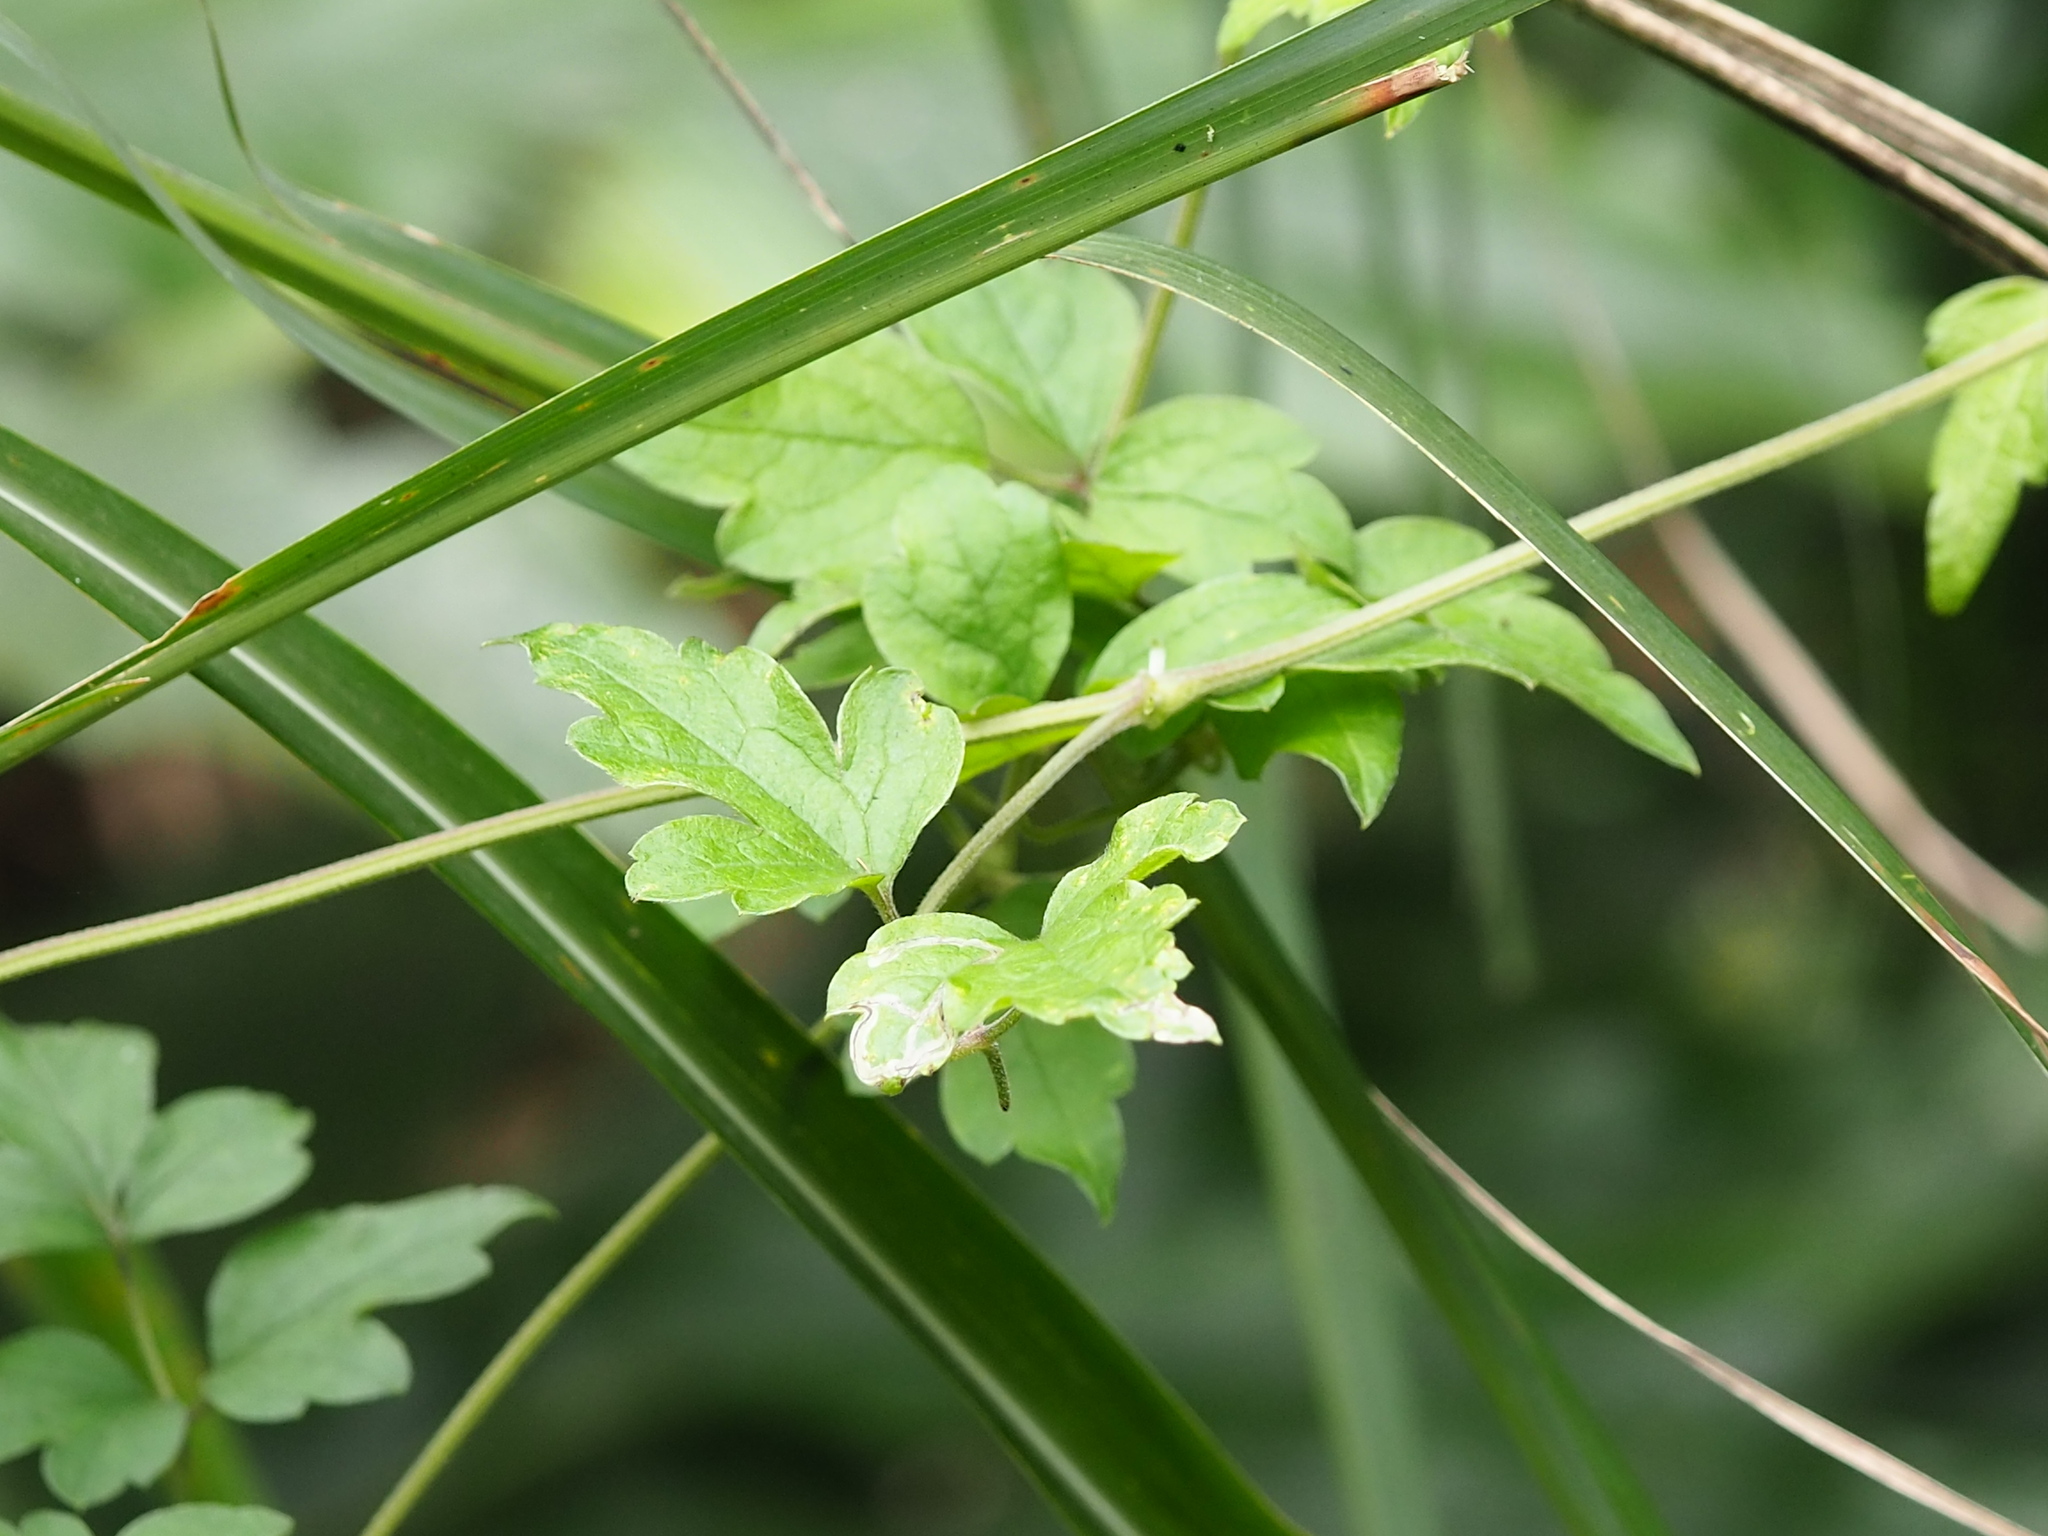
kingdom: Plantae
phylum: Tracheophyta
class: Magnoliopsida
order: Ranunculales
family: Ranunculaceae
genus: Clematis
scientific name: Clematis grata
